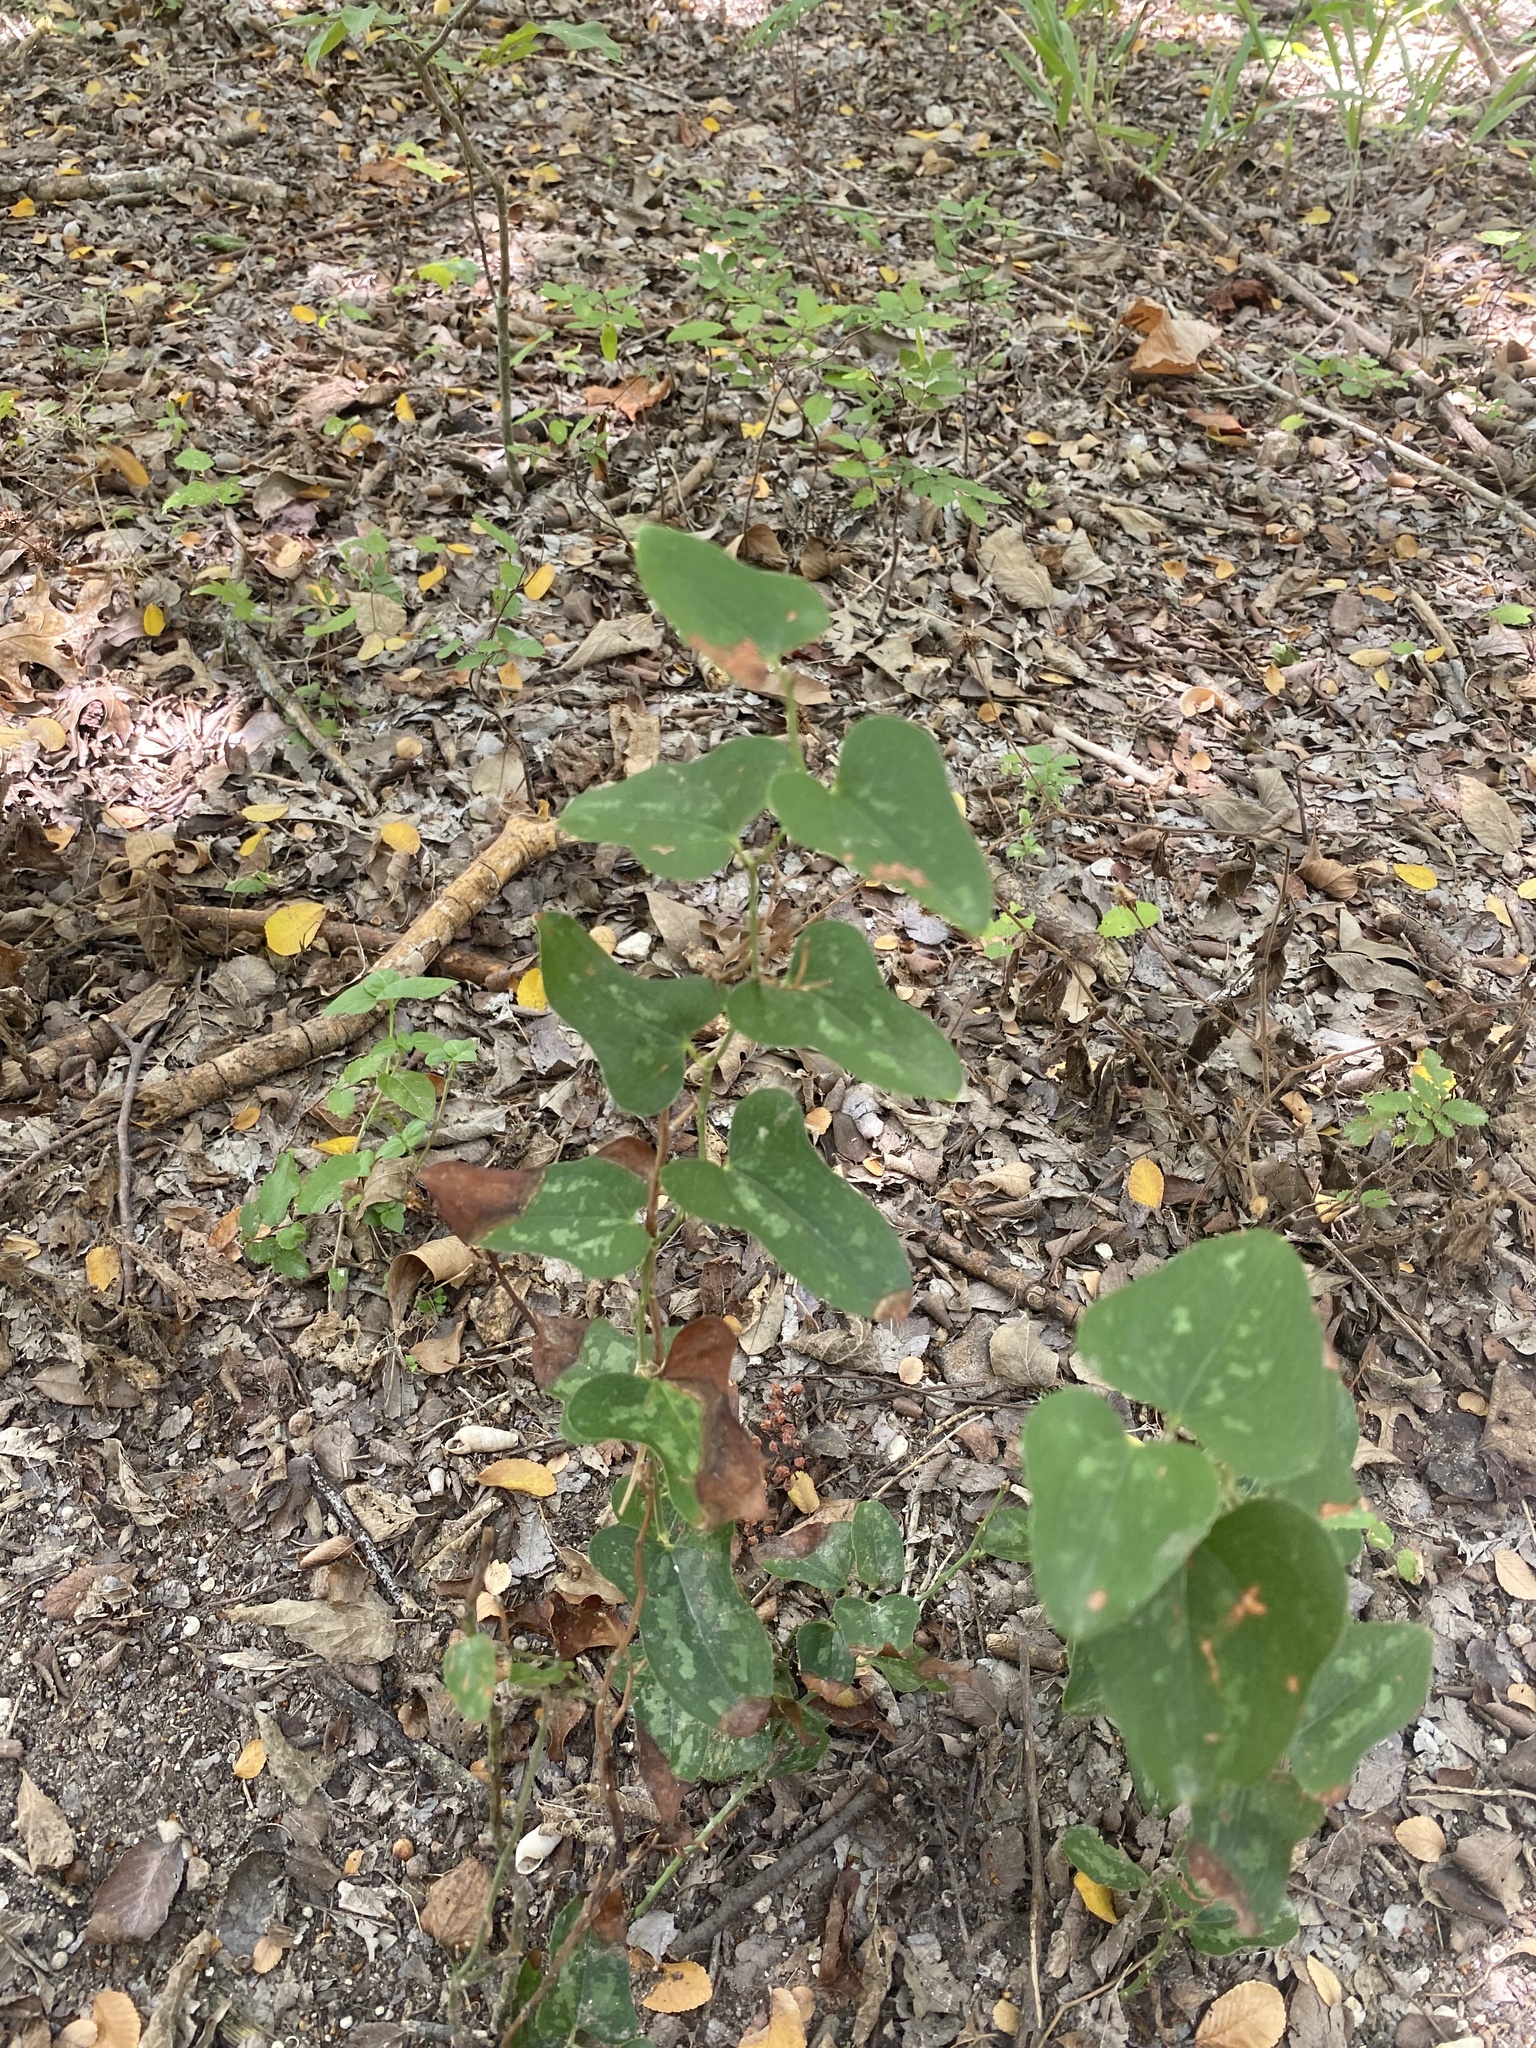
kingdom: Plantae
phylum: Tracheophyta
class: Liliopsida
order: Liliales
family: Smilacaceae
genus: Smilax
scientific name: Smilax bona-nox
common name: Catbrier
